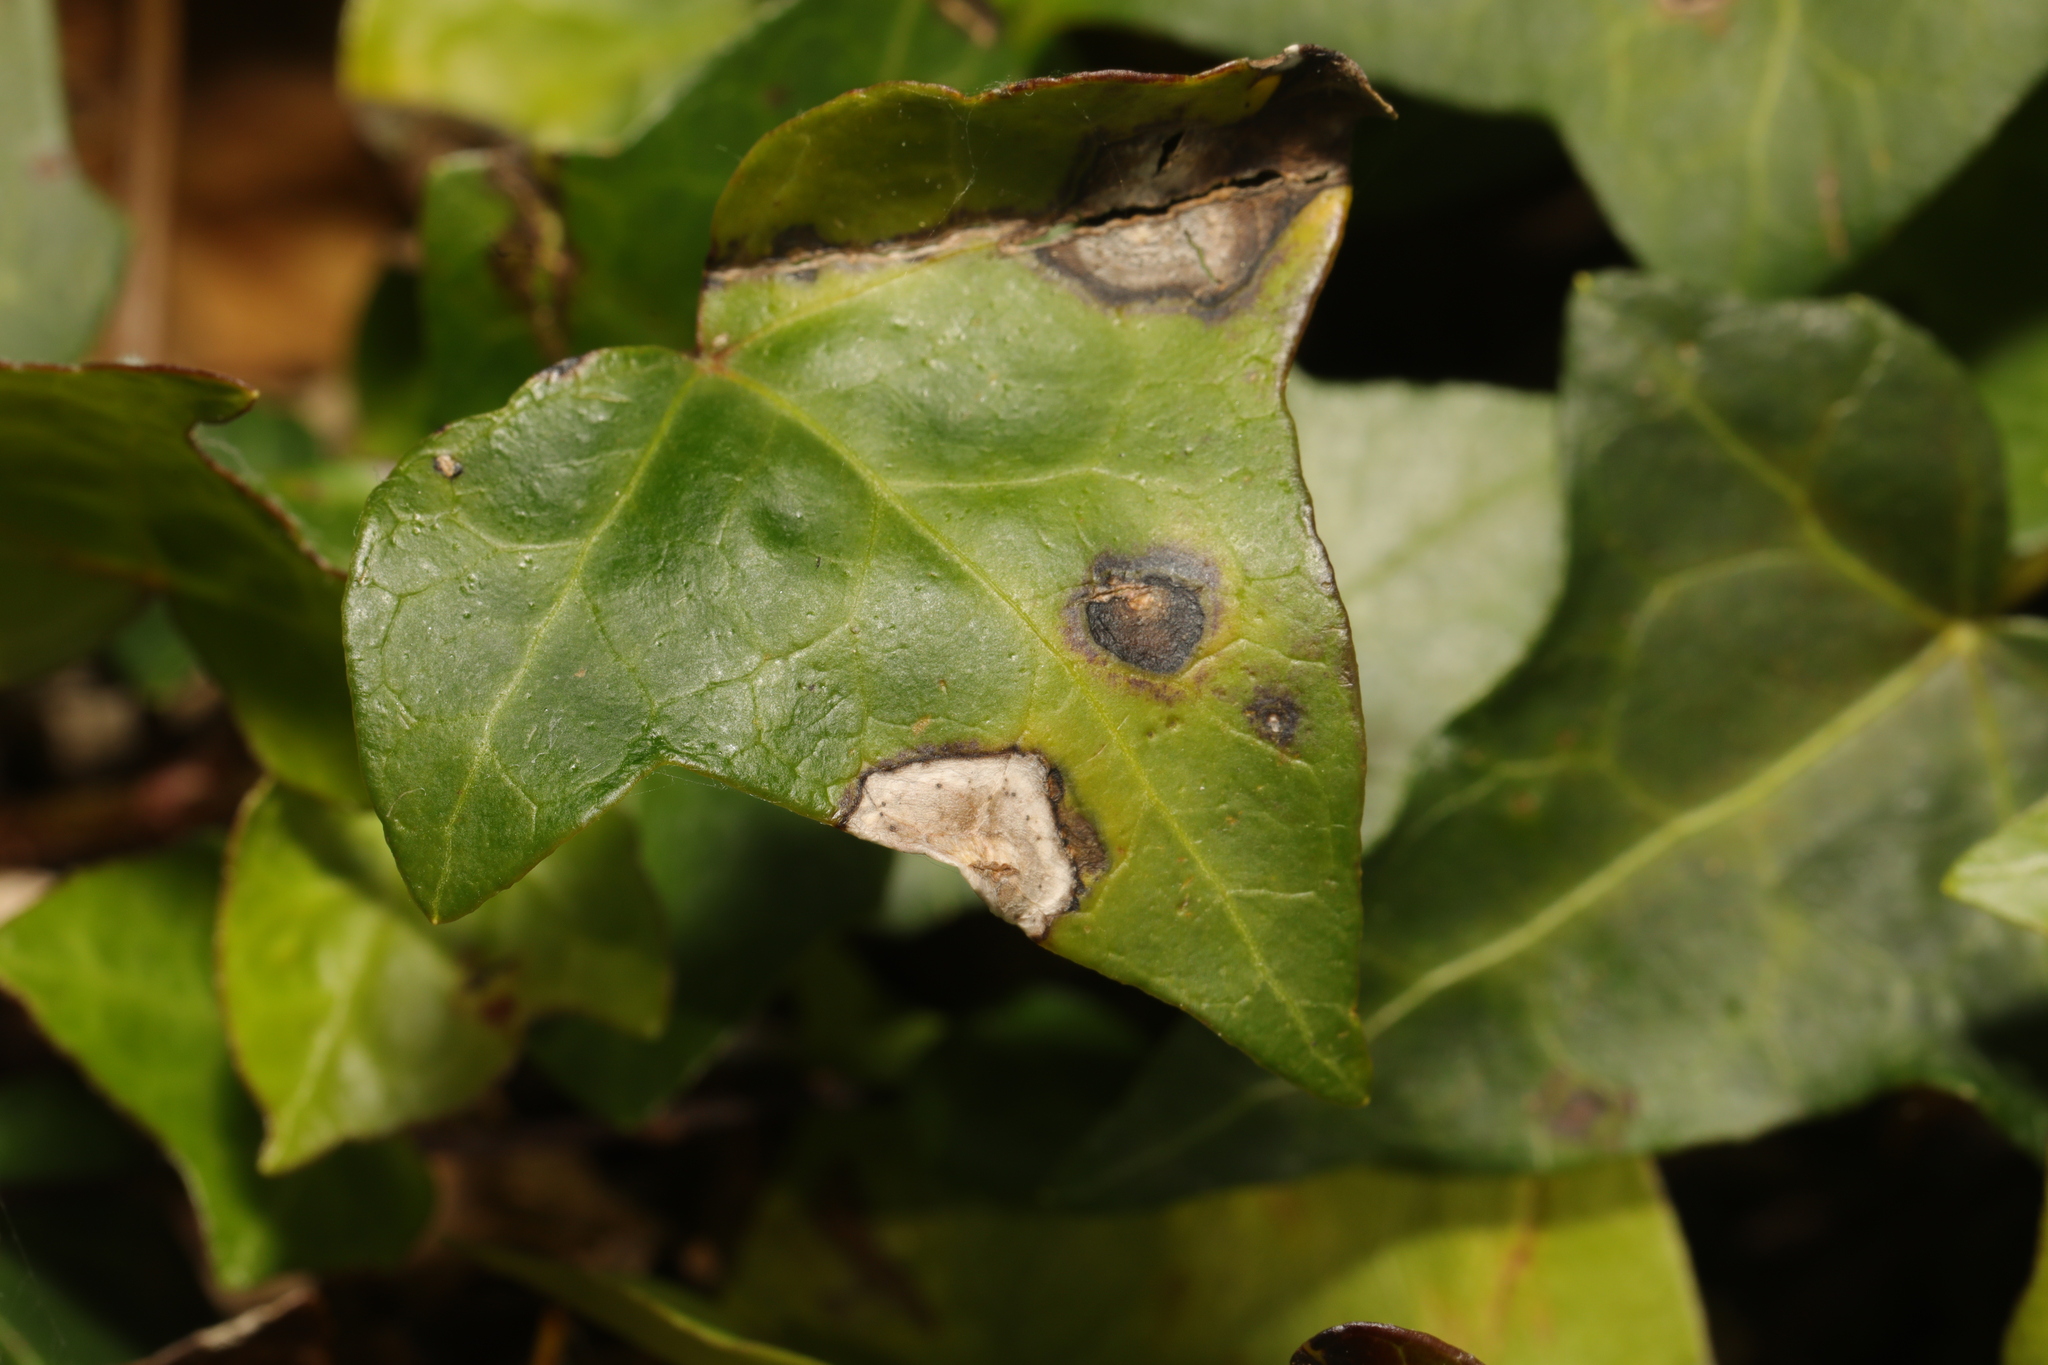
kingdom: Fungi
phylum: Ascomycota
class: Dothideomycetes
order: Pleosporales
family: Didymellaceae
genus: Boeremia
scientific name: Boeremia hedericola
